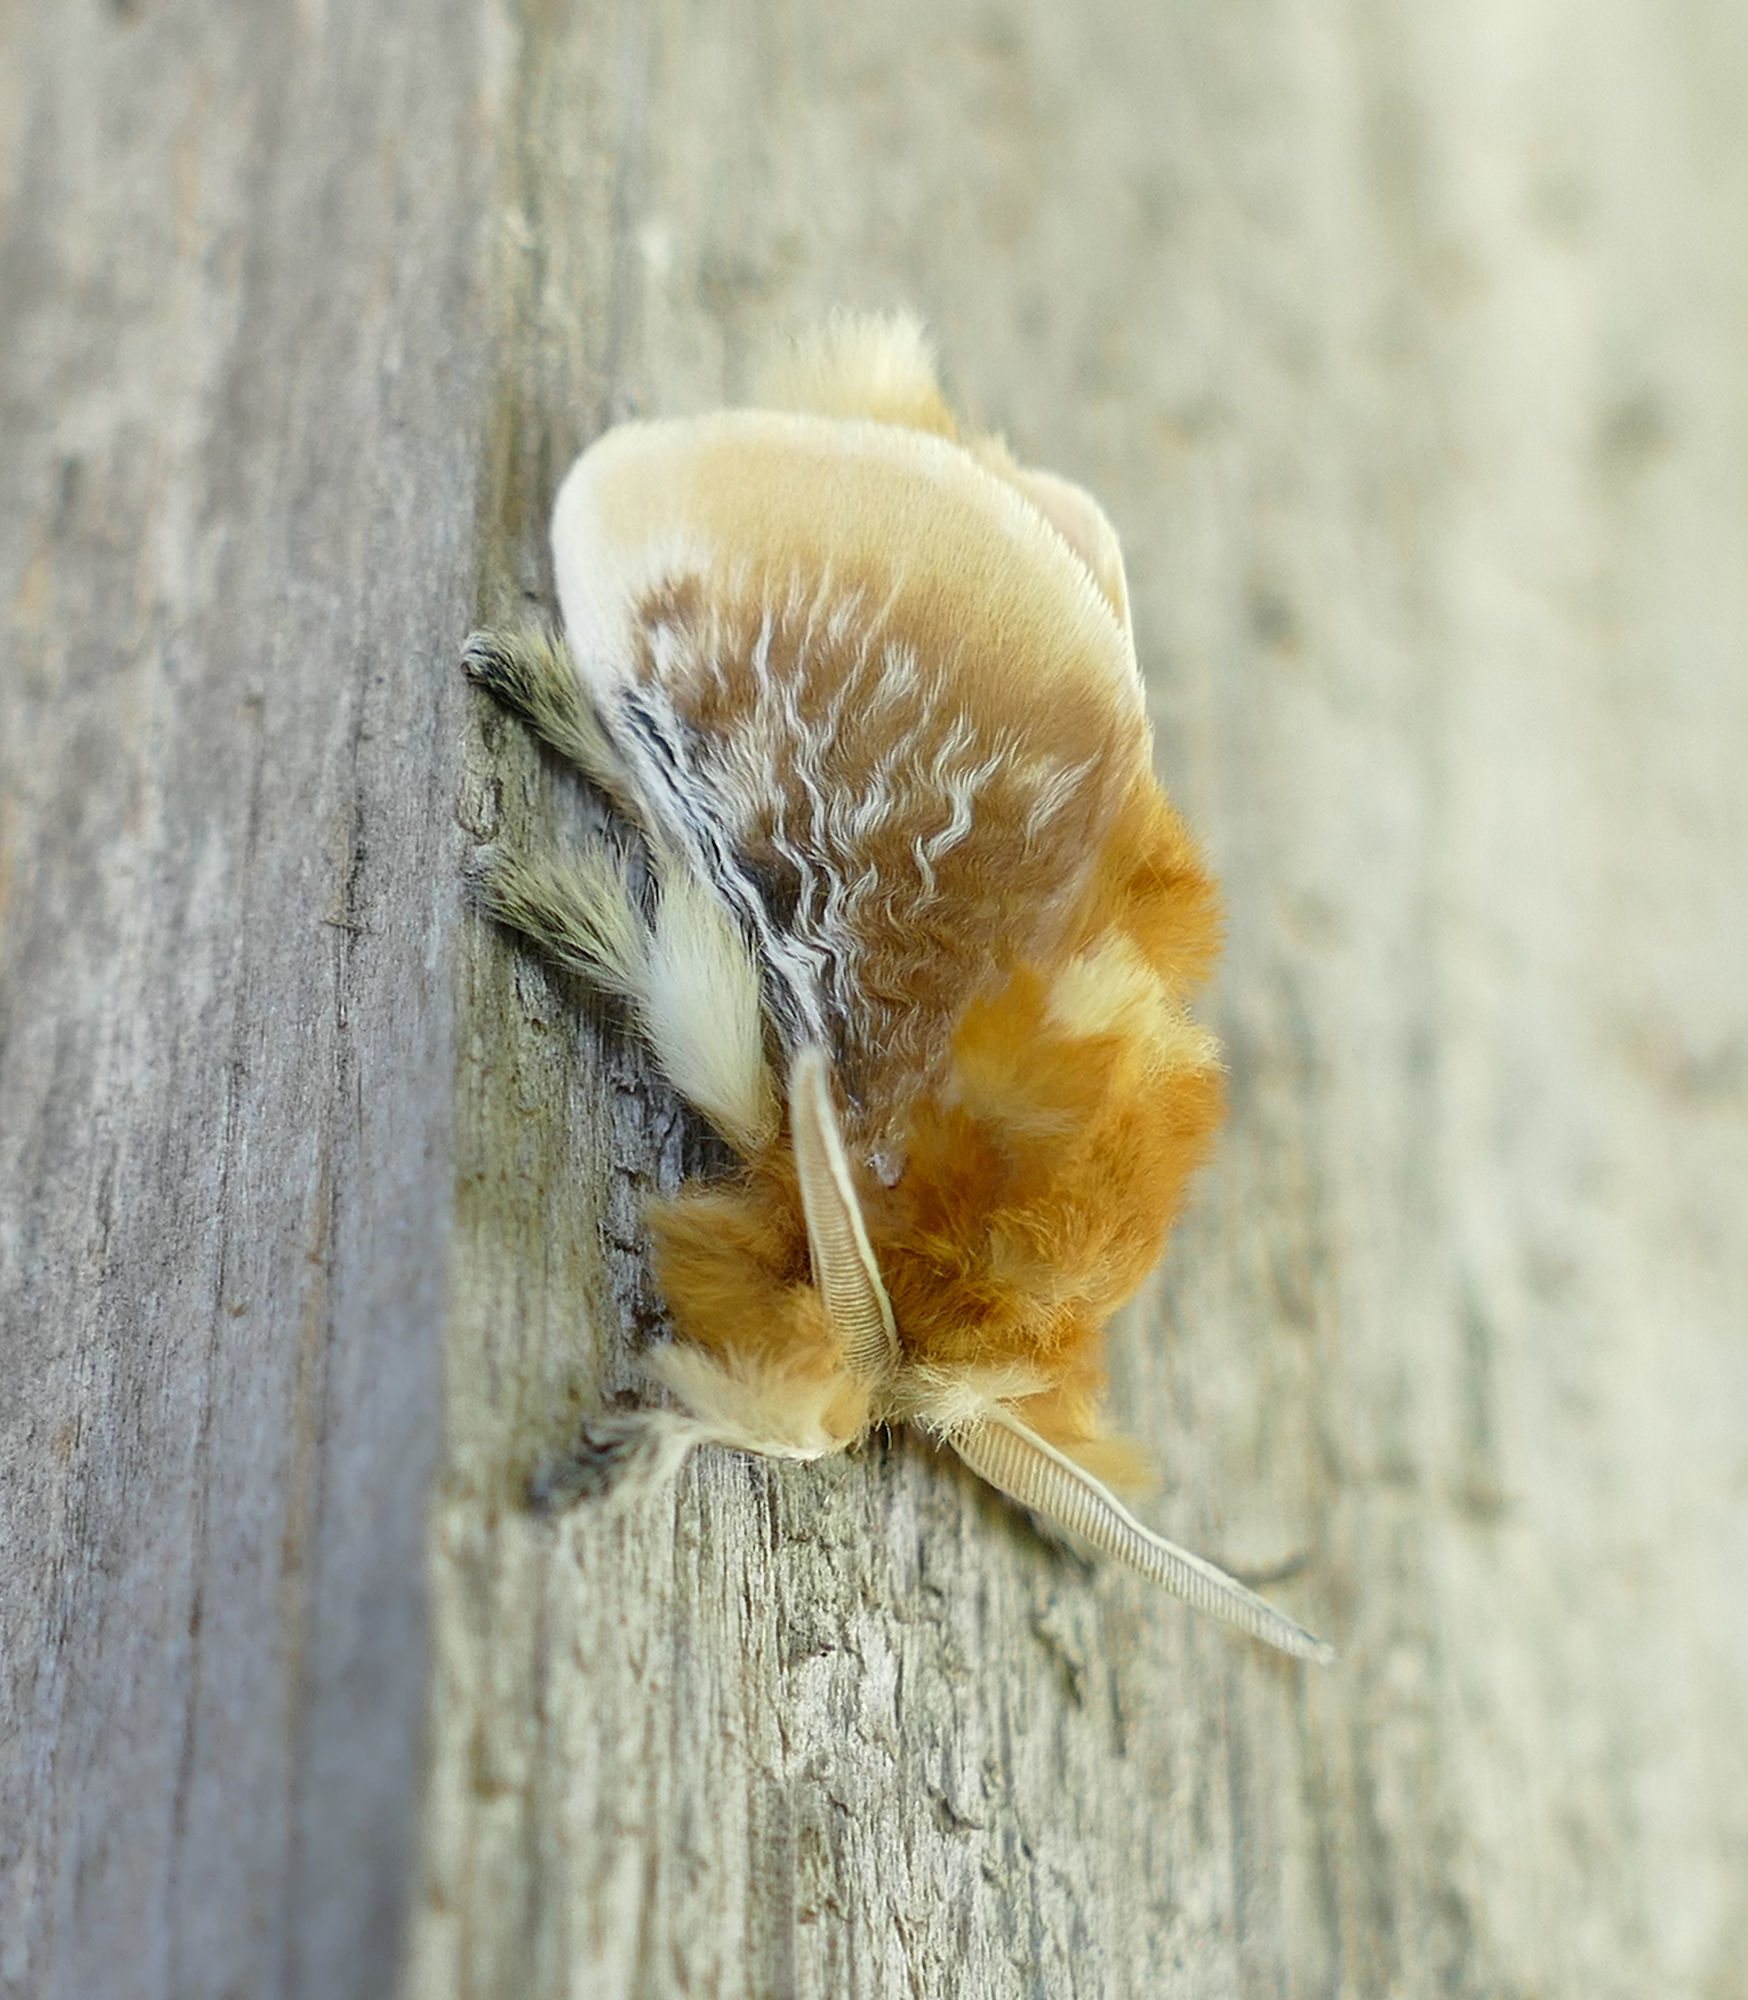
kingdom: Animalia
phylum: Arthropoda
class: Insecta
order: Lepidoptera
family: Megalopygidae
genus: Megalopyge
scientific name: Megalopyge opercularis
